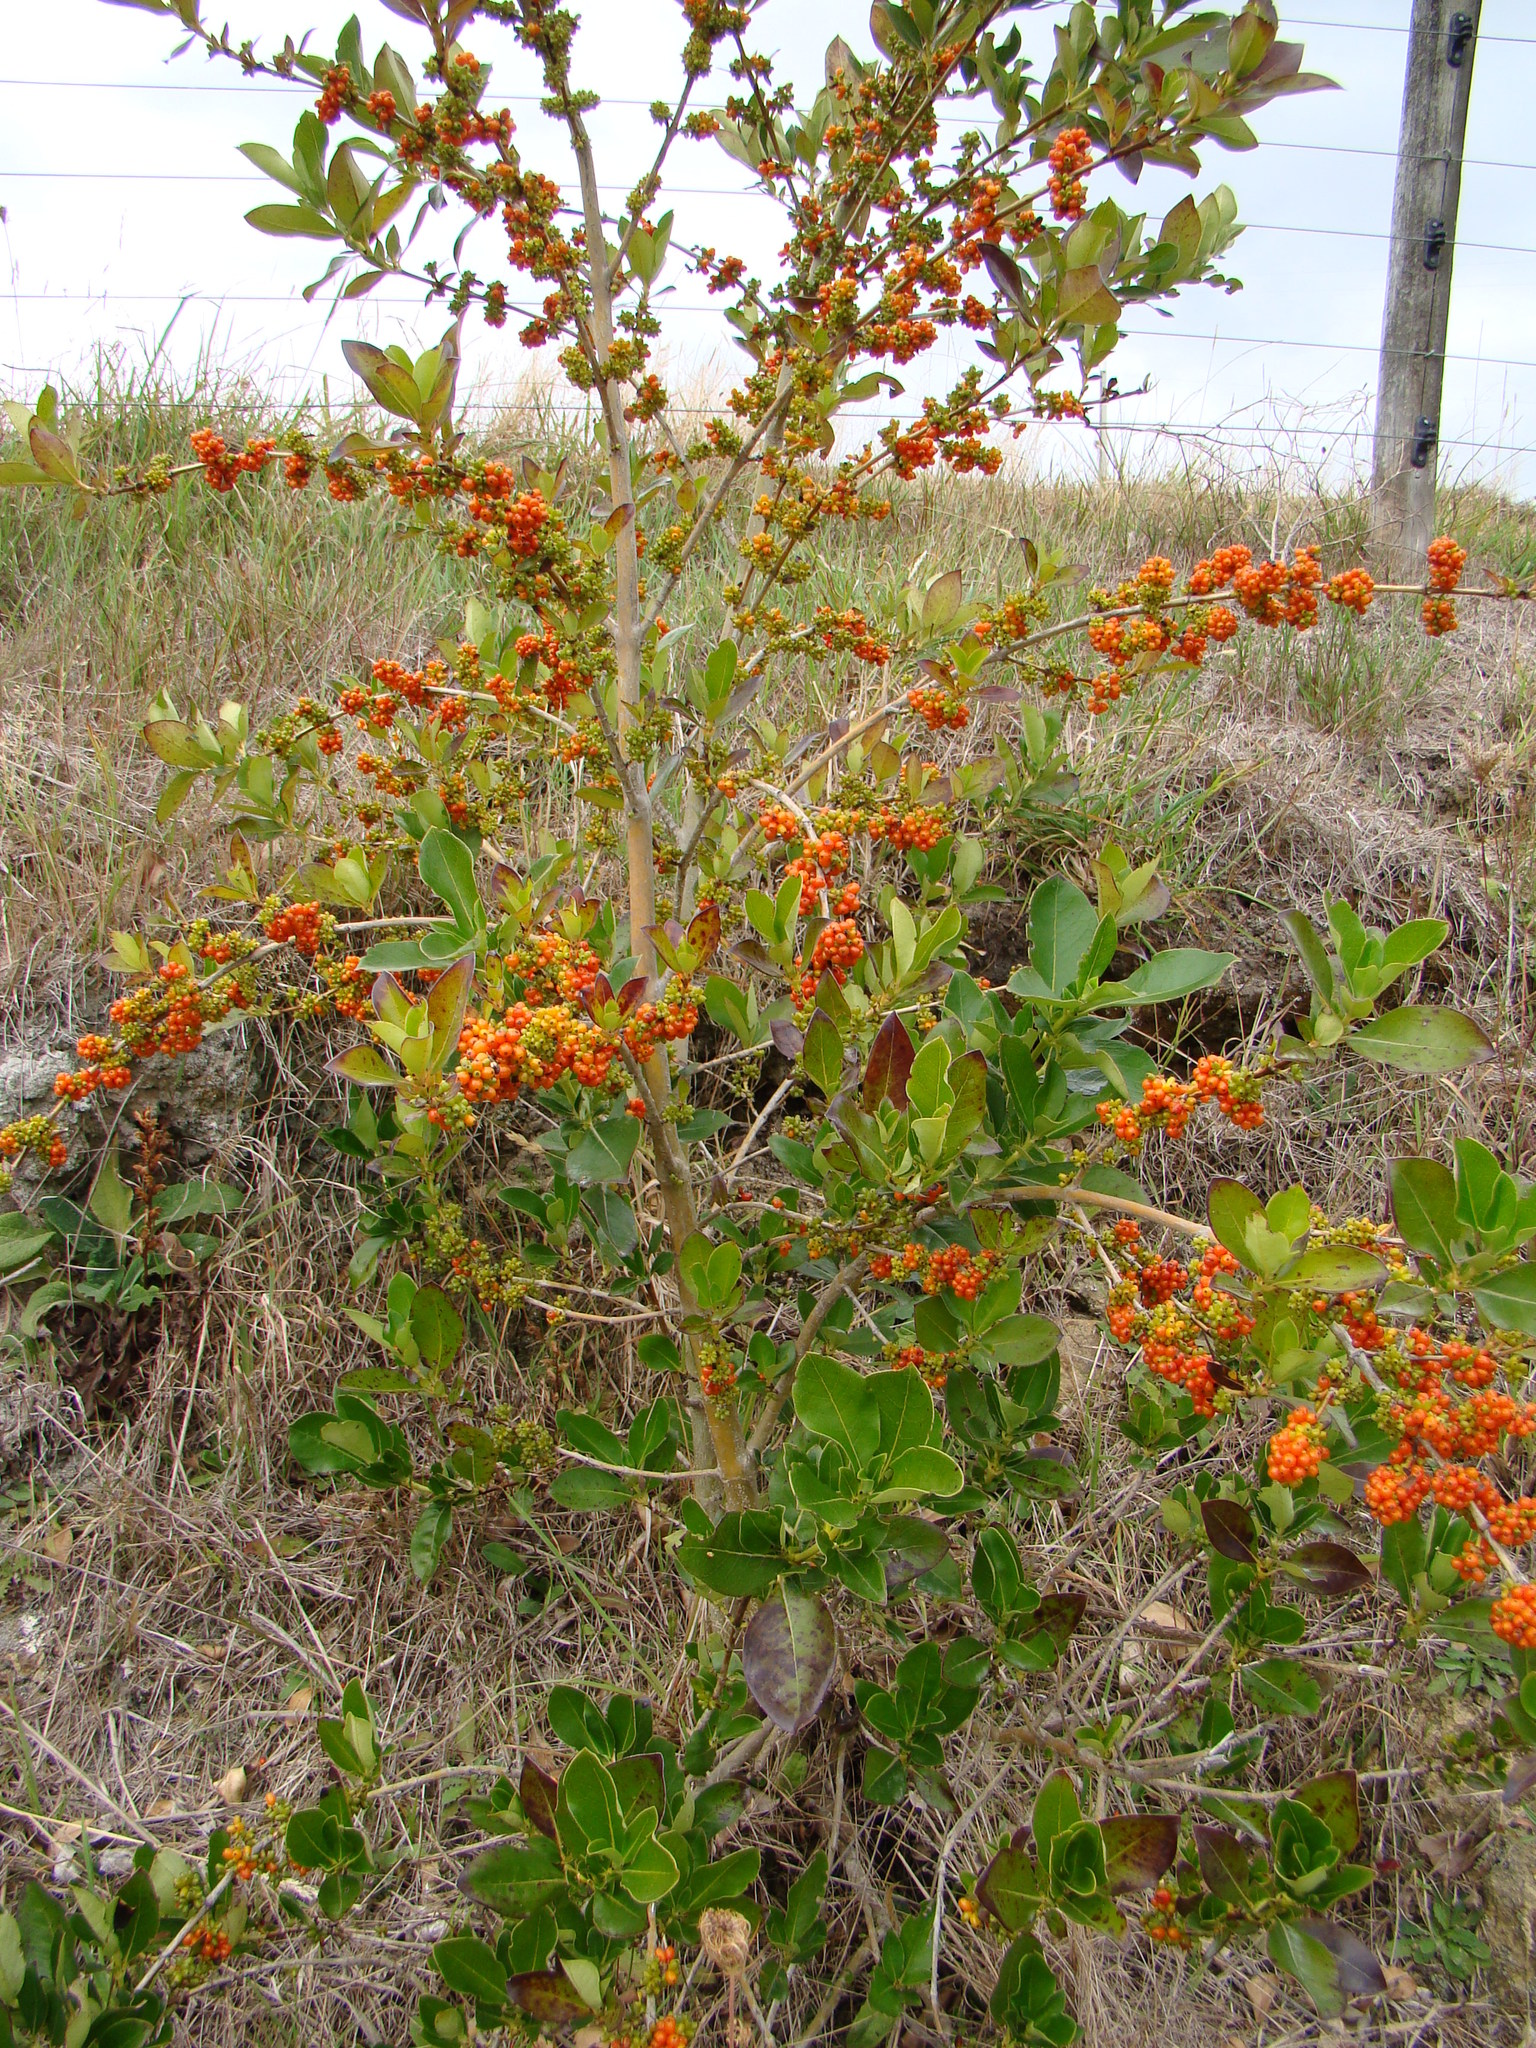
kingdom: Plantae
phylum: Tracheophyta
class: Magnoliopsida
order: Gentianales
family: Rubiaceae
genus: Coprosma
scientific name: Coprosma robusta
